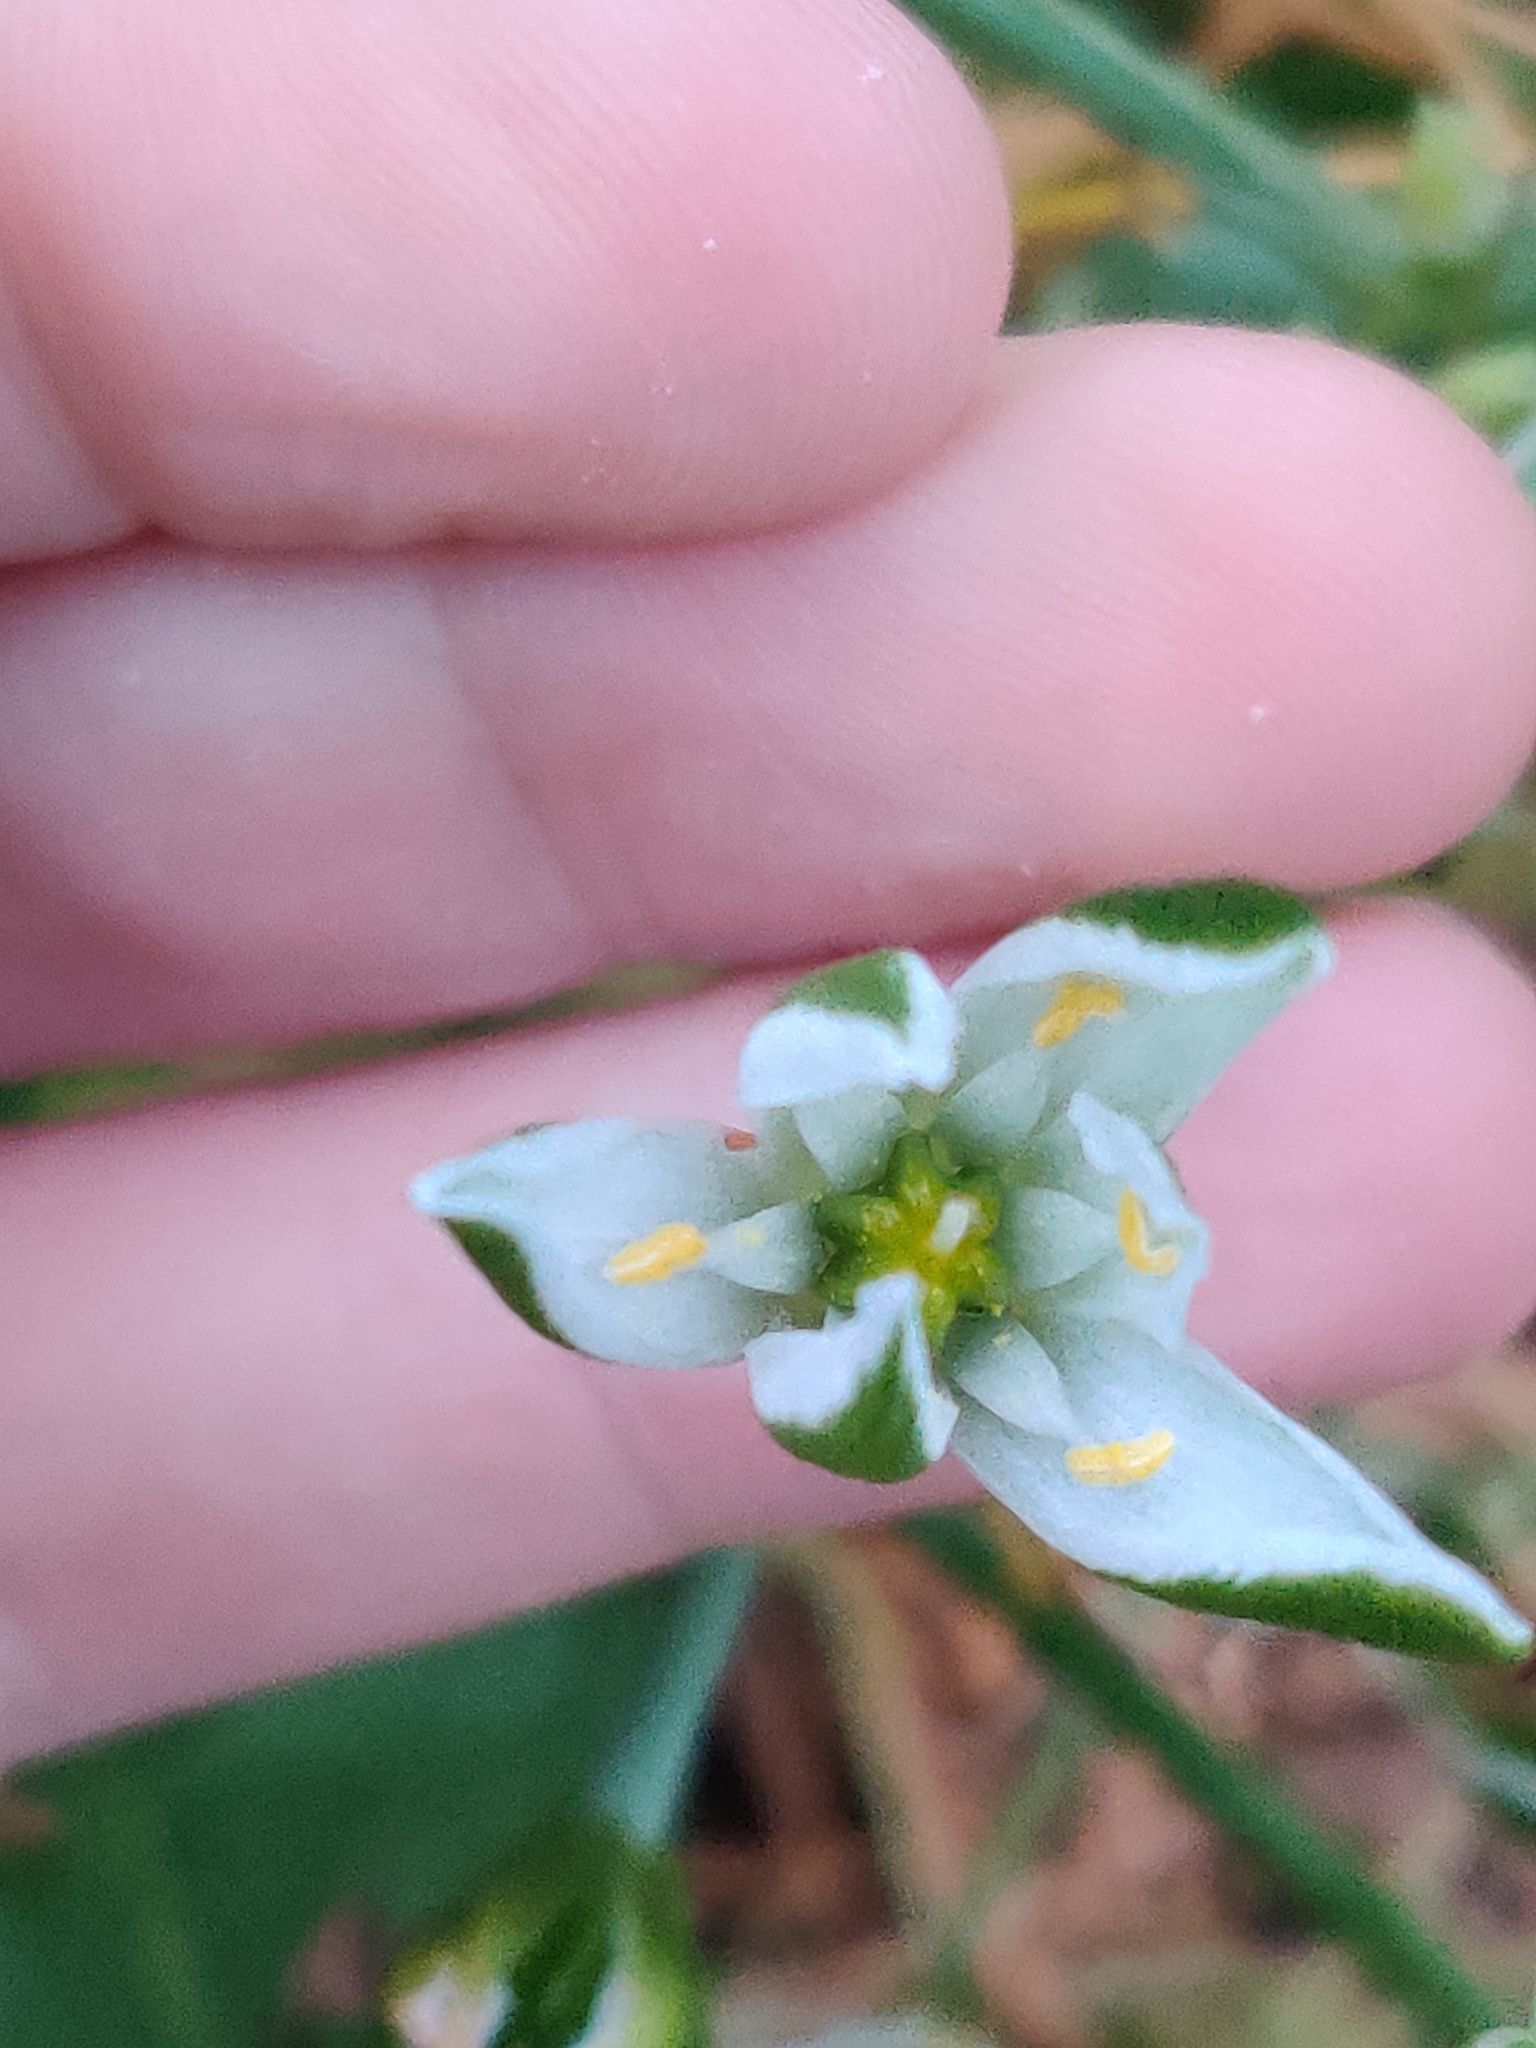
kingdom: Plantae
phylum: Tracheophyta
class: Liliopsida
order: Asparagales
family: Asparagaceae
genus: Ornithogalum
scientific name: Ornithogalum umbellatum
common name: Garden star-of-bethlehem
